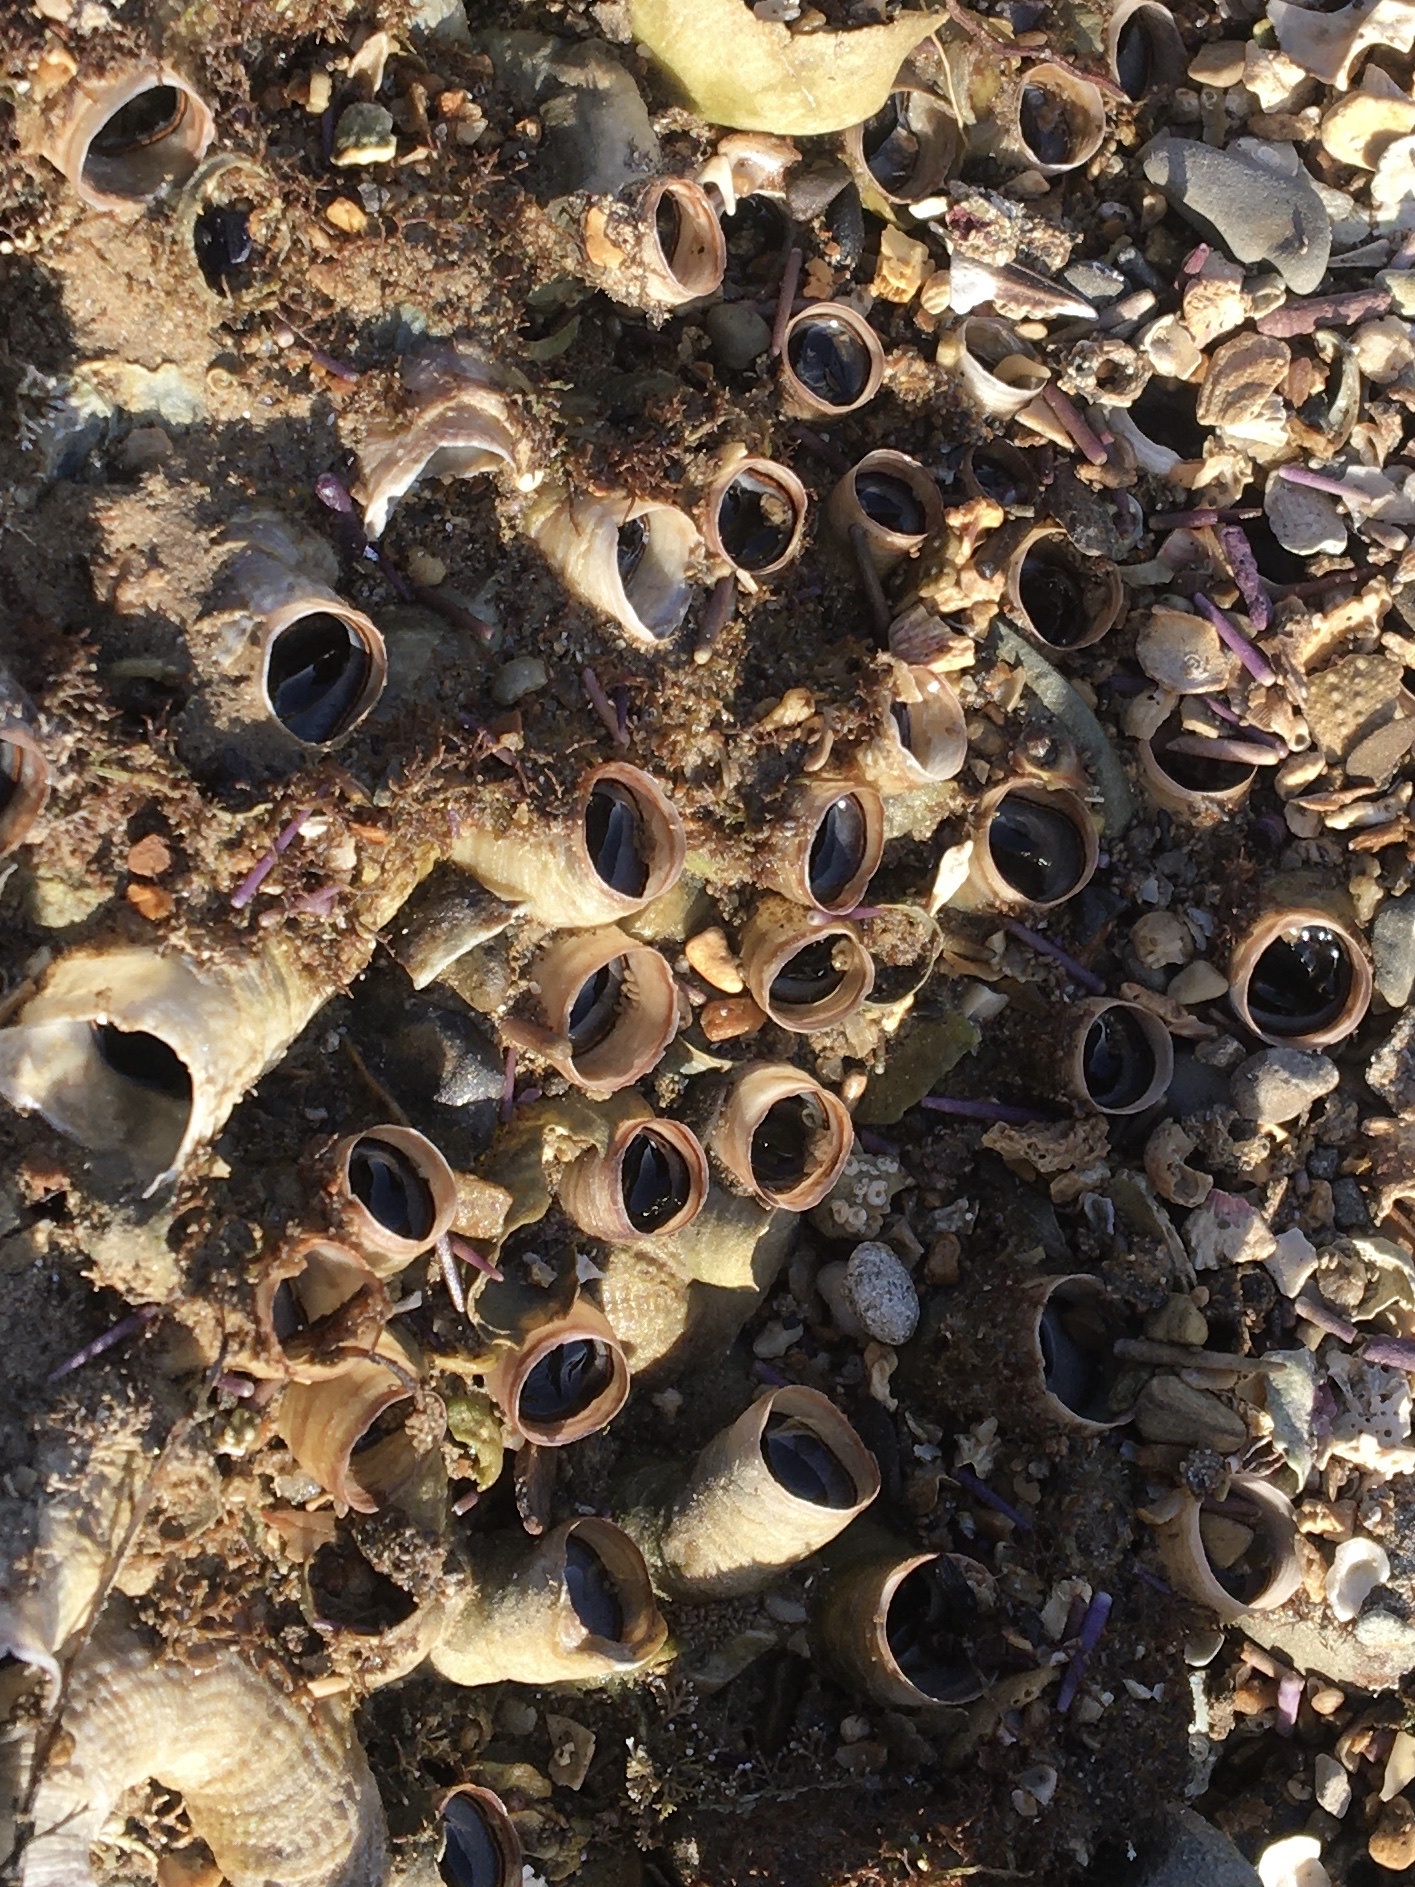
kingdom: Animalia
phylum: Mollusca
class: Gastropoda
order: Littorinimorpha
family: Vermetidae
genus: Thylacodes
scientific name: Thylacodes squamigerus
